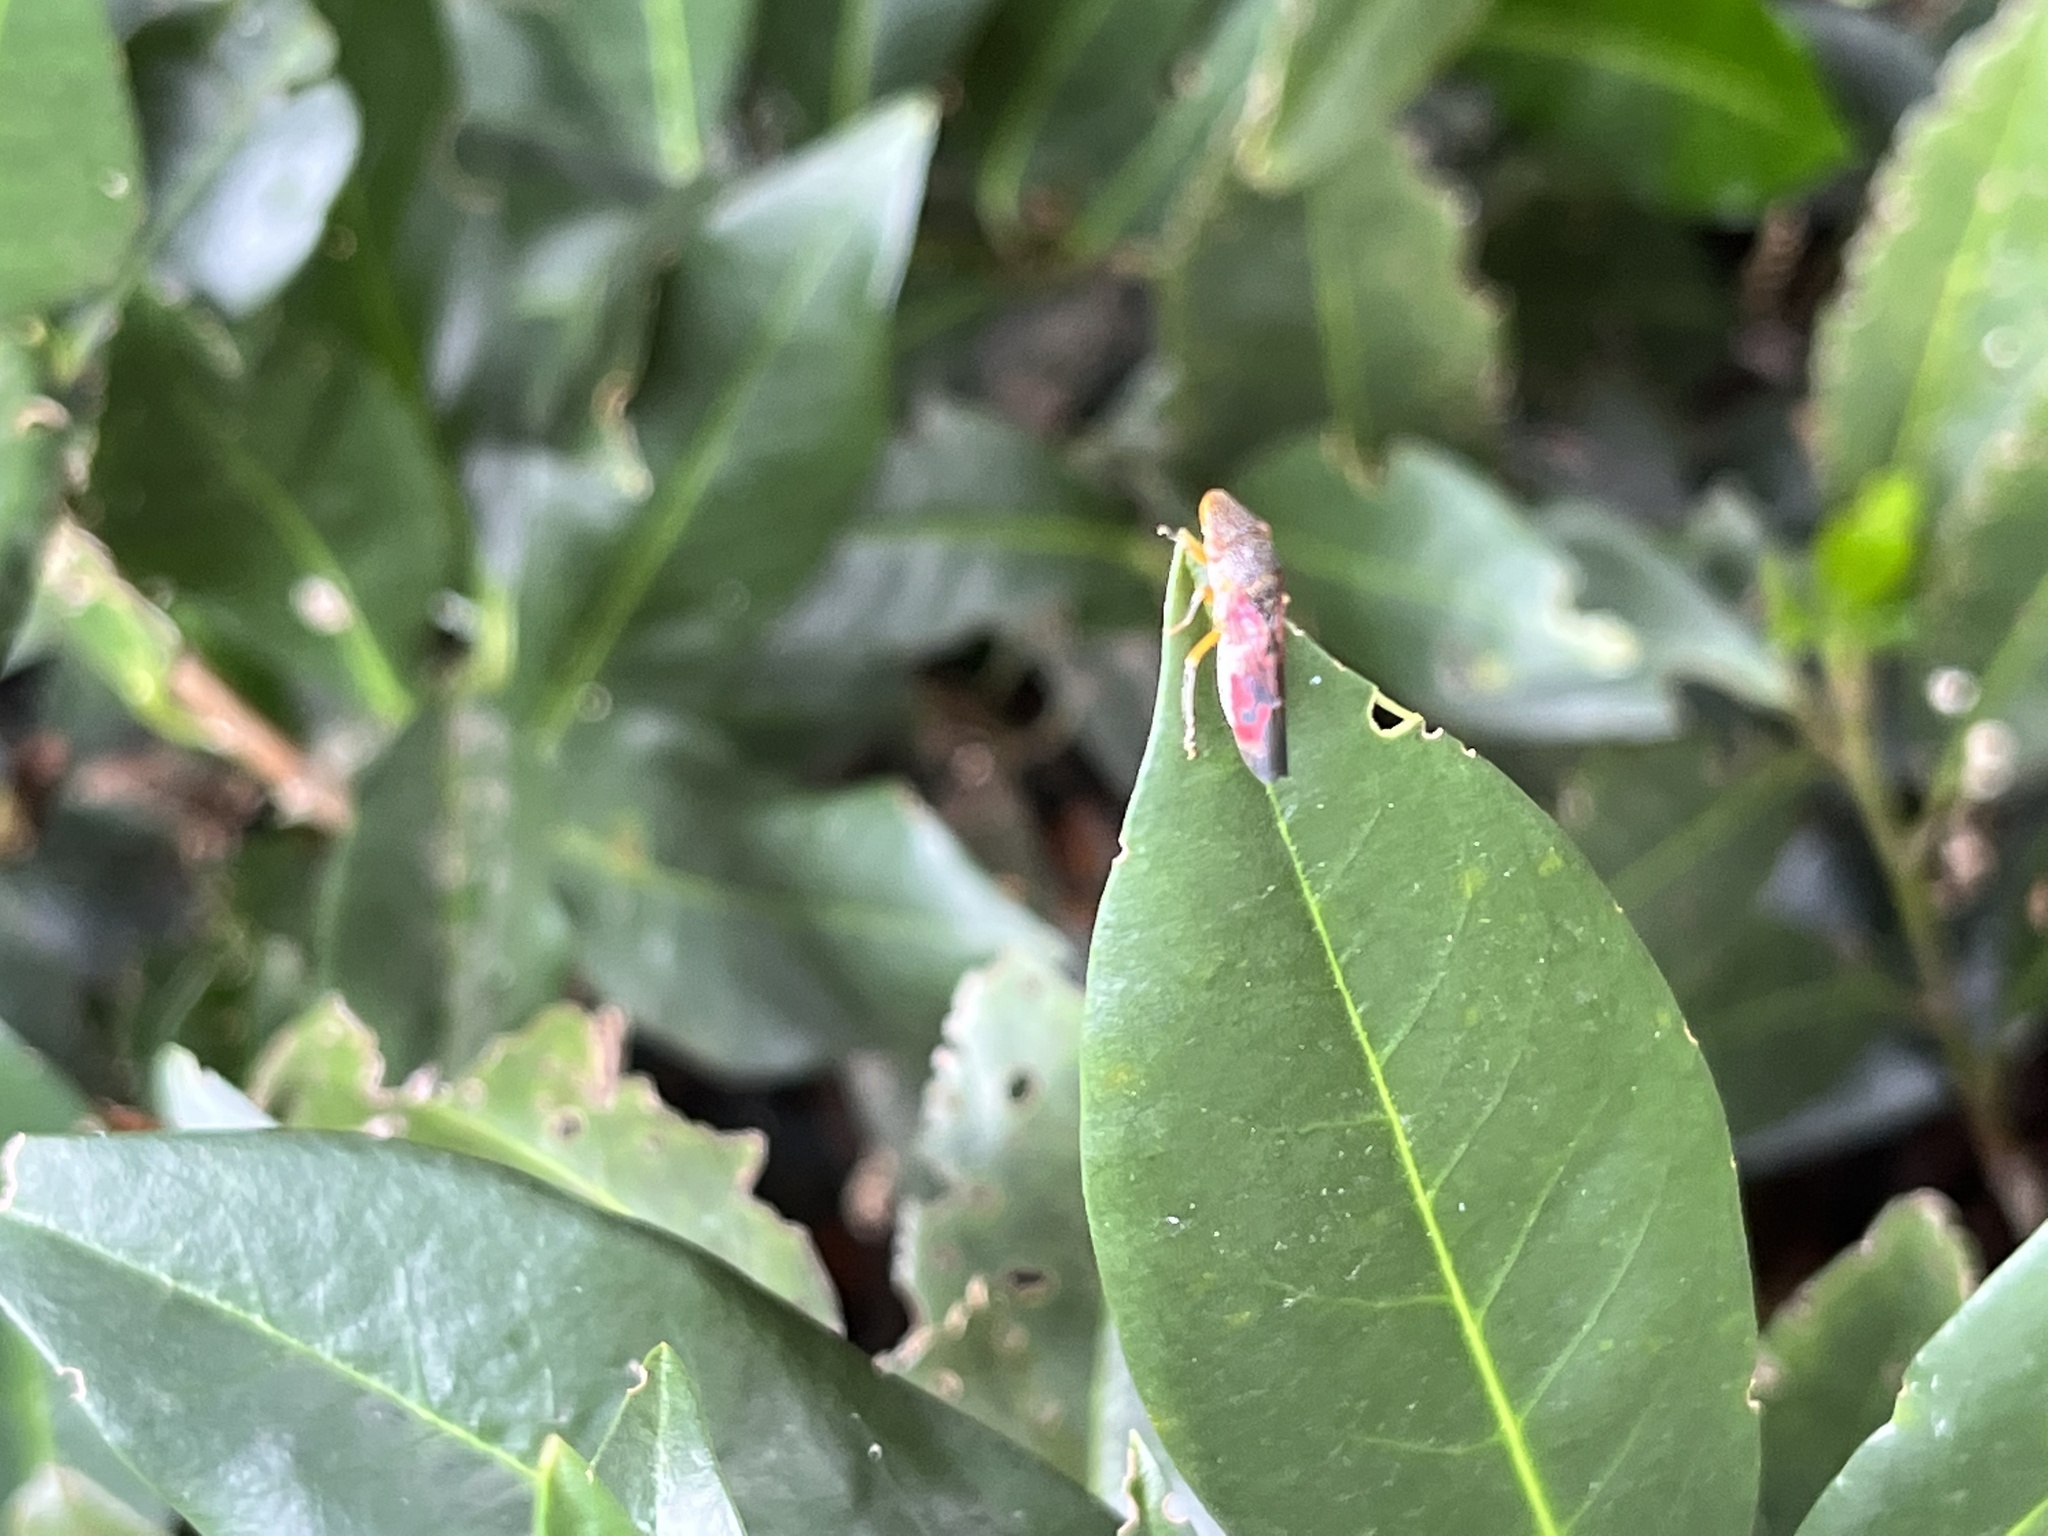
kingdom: Animalia
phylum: Arthropoda
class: Insecta
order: Hemiptera
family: Cicadellidae
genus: Homalodisca
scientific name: Homalodisca vitripennis
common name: Glassy-winged sharpshooter
